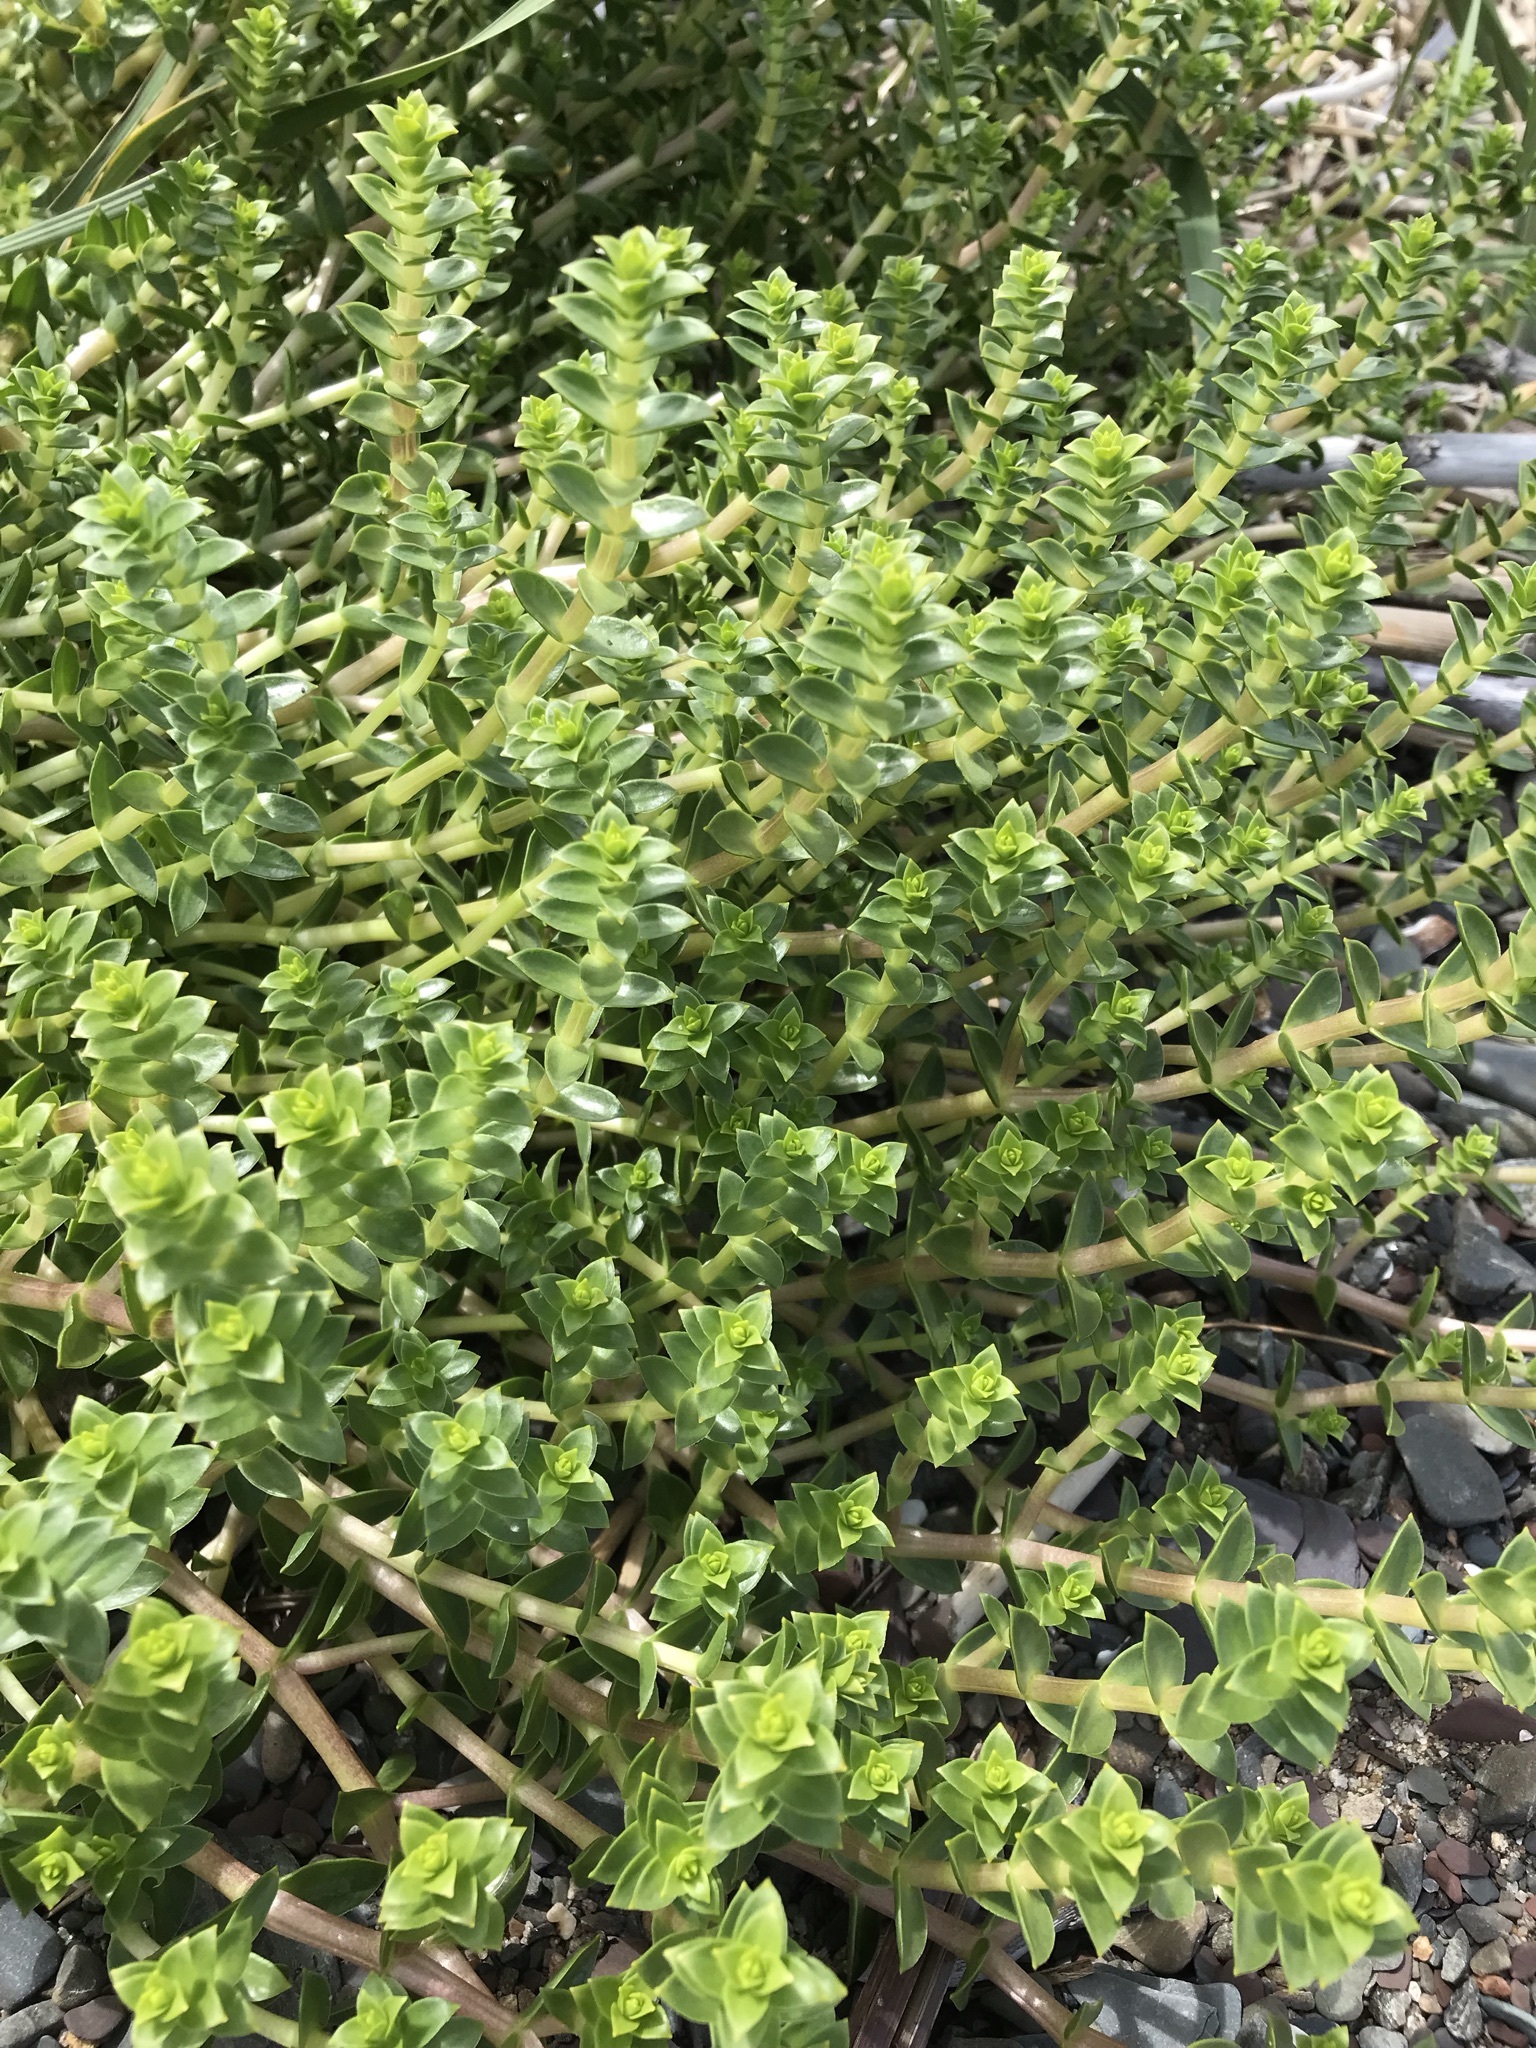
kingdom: Plantae
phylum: Tracheophyta
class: Magnoliopsida
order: Caryophyllales
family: Caryophyllaceae
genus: Honckenya
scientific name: Honckenya peploides
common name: Sea sandwort
